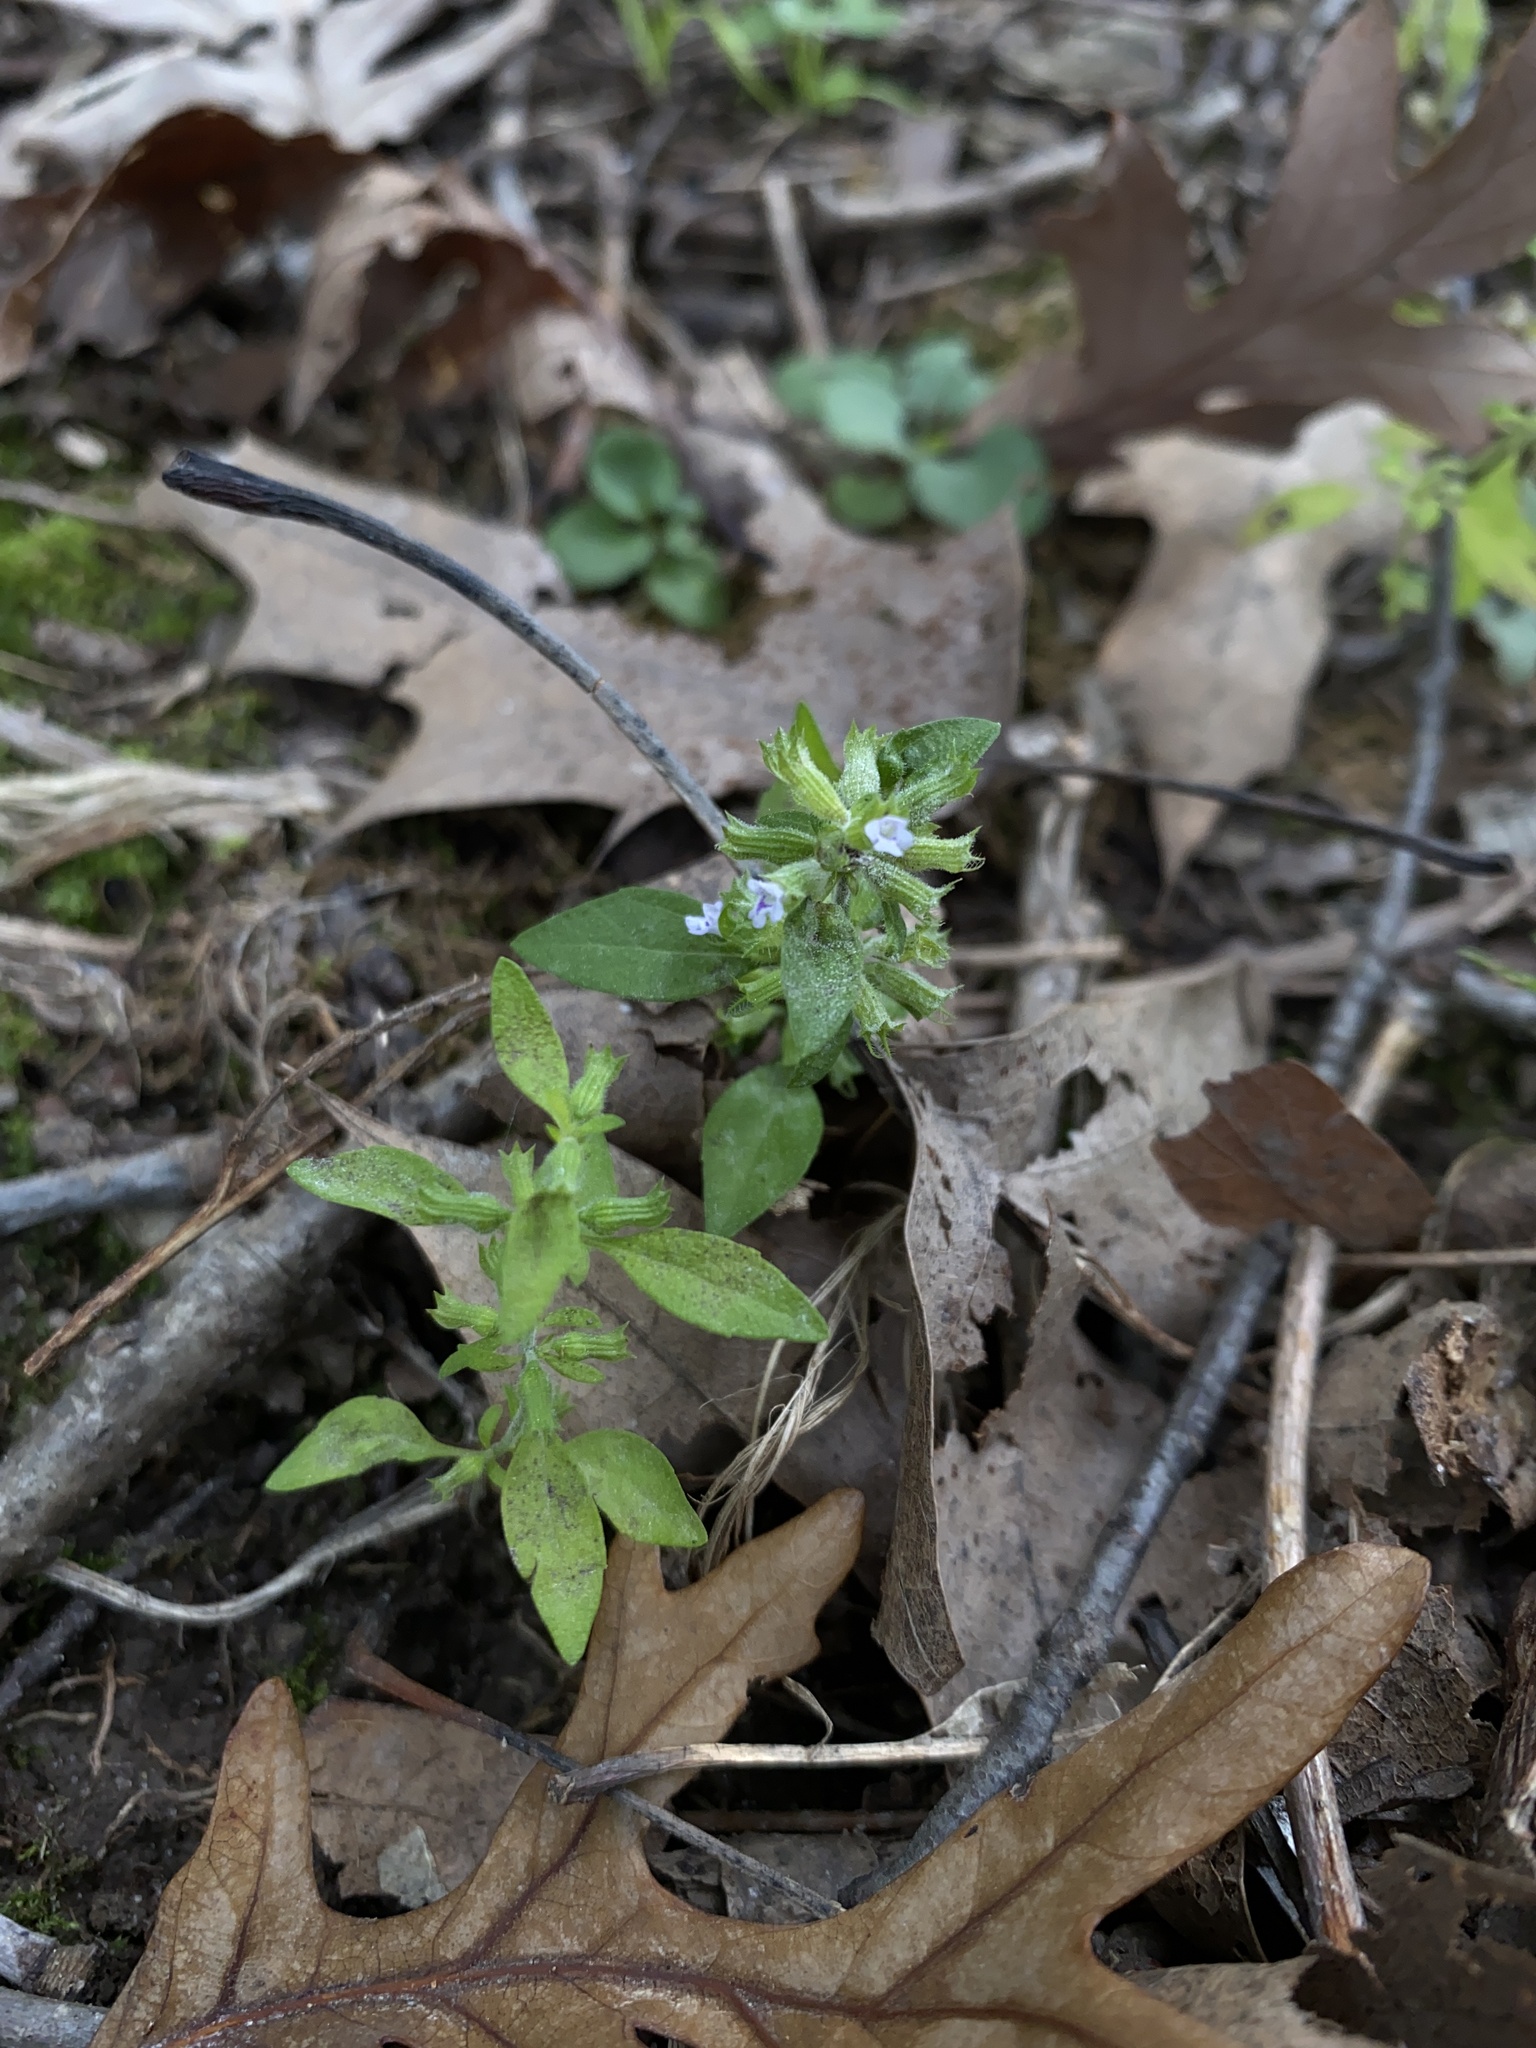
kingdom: Plantae
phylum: Tracheophyta
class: Magnoliopsida
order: Lamiales
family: Lamiaceae
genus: Hedeoma
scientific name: Hedeoma pulegioides
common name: American false pennyroyal
